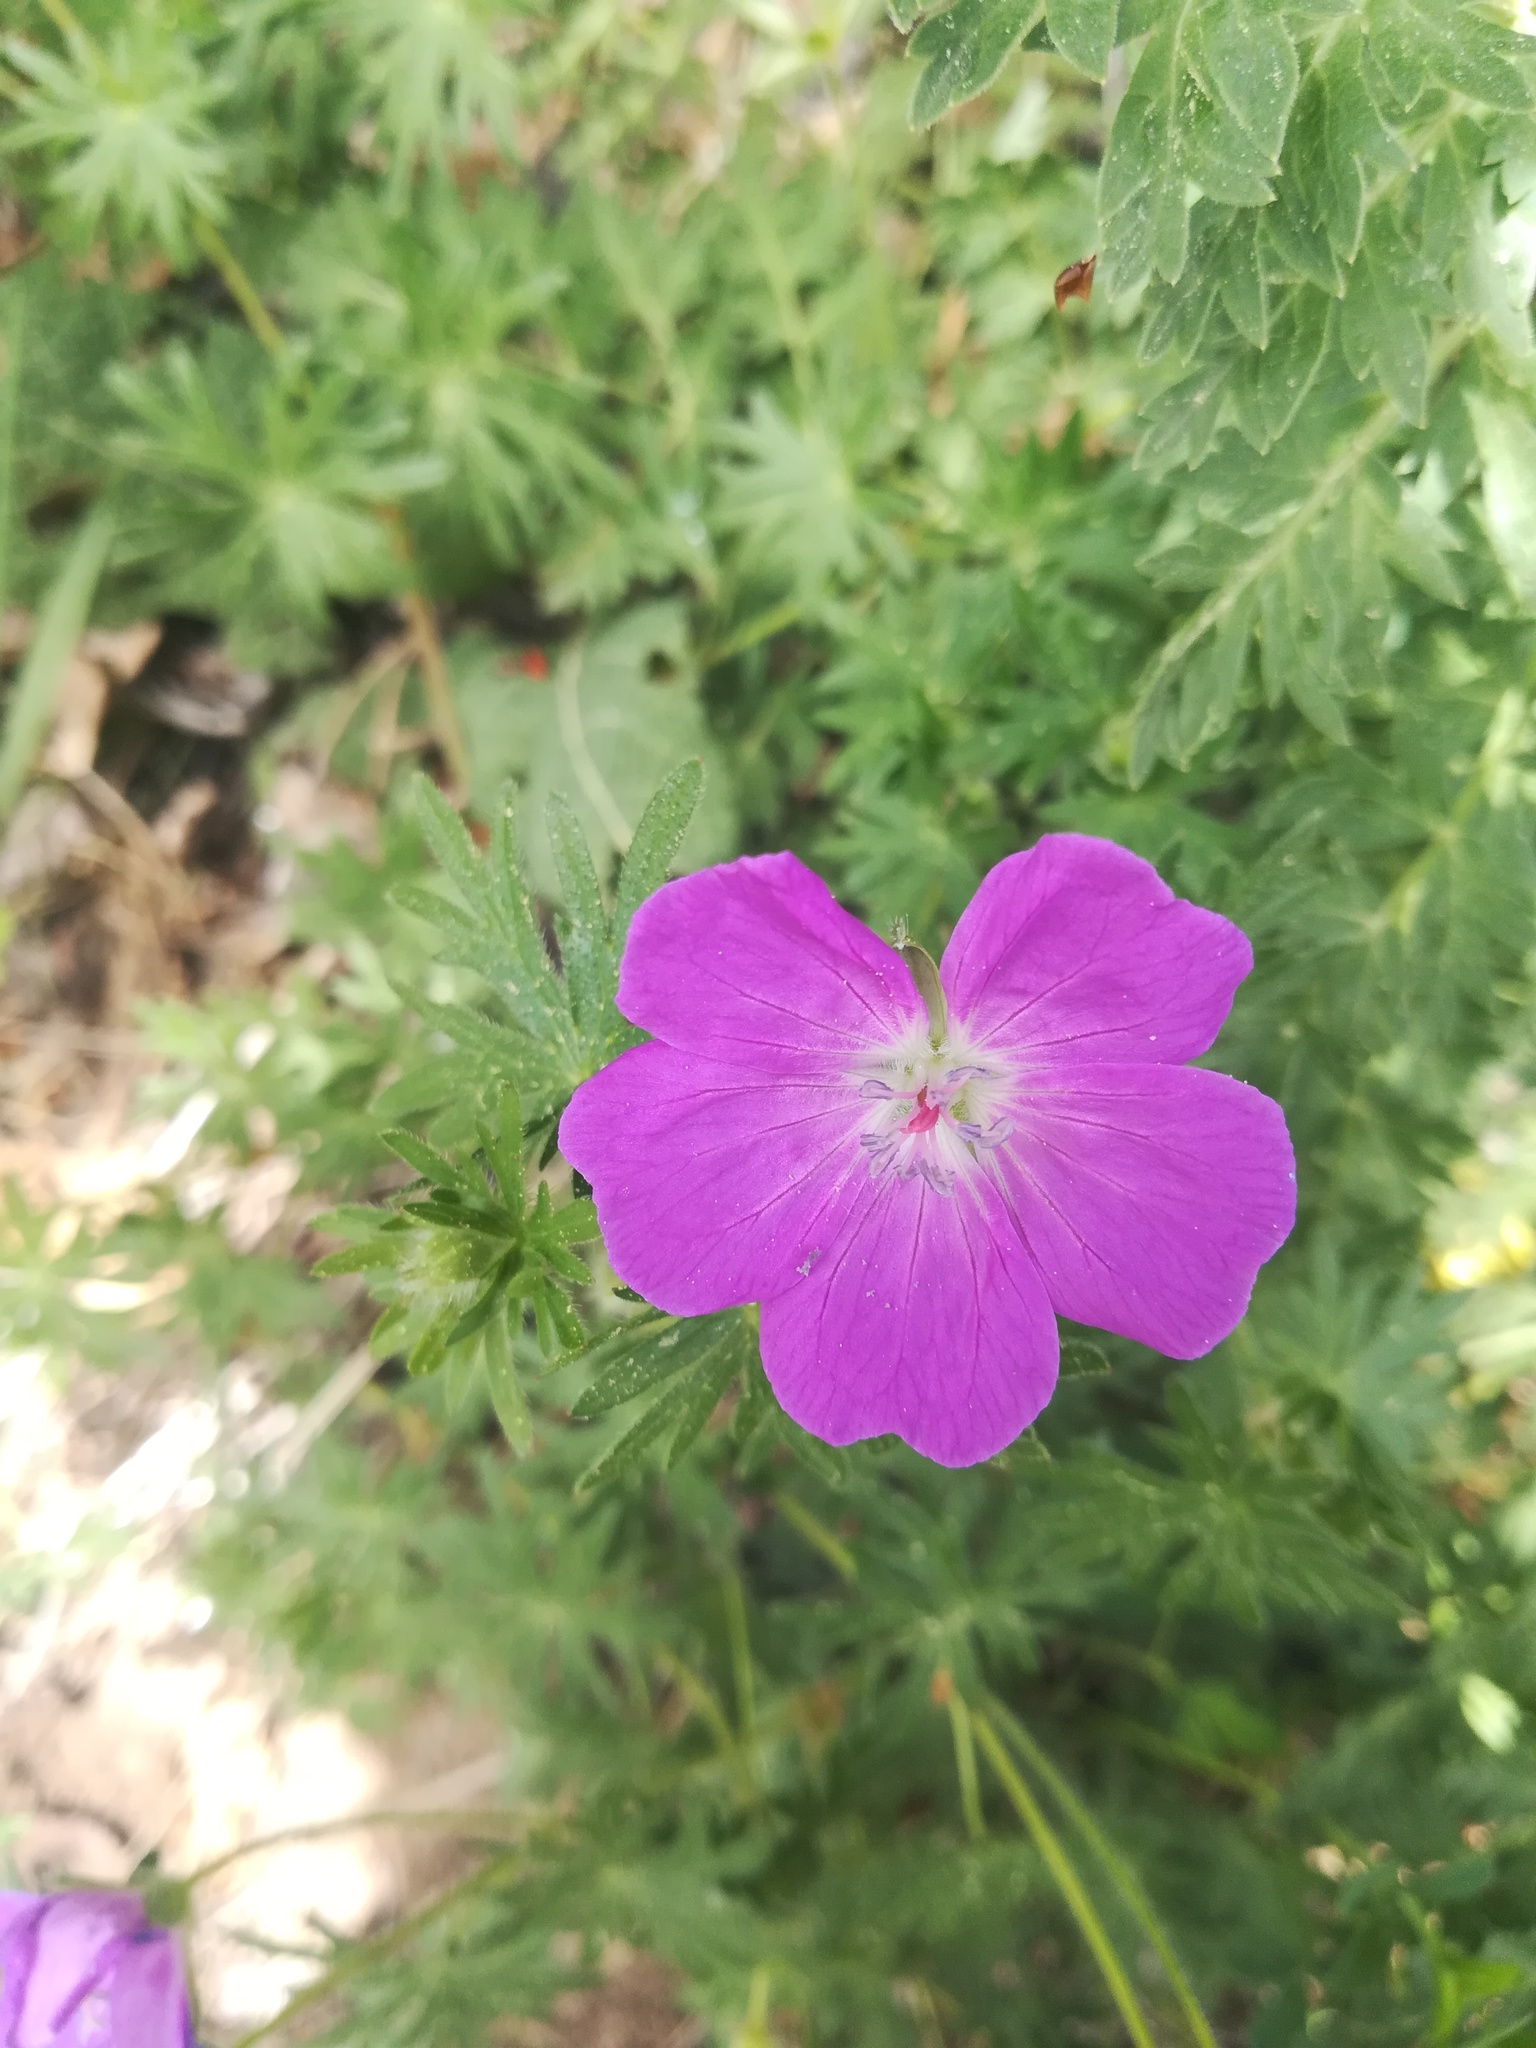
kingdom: Plantae
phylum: Tracheophyta
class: Magnoliopsida
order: Geraniales
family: Geraniaceae
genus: Geranium
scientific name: Geranium sanguineum
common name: Bloody crane's-bill
